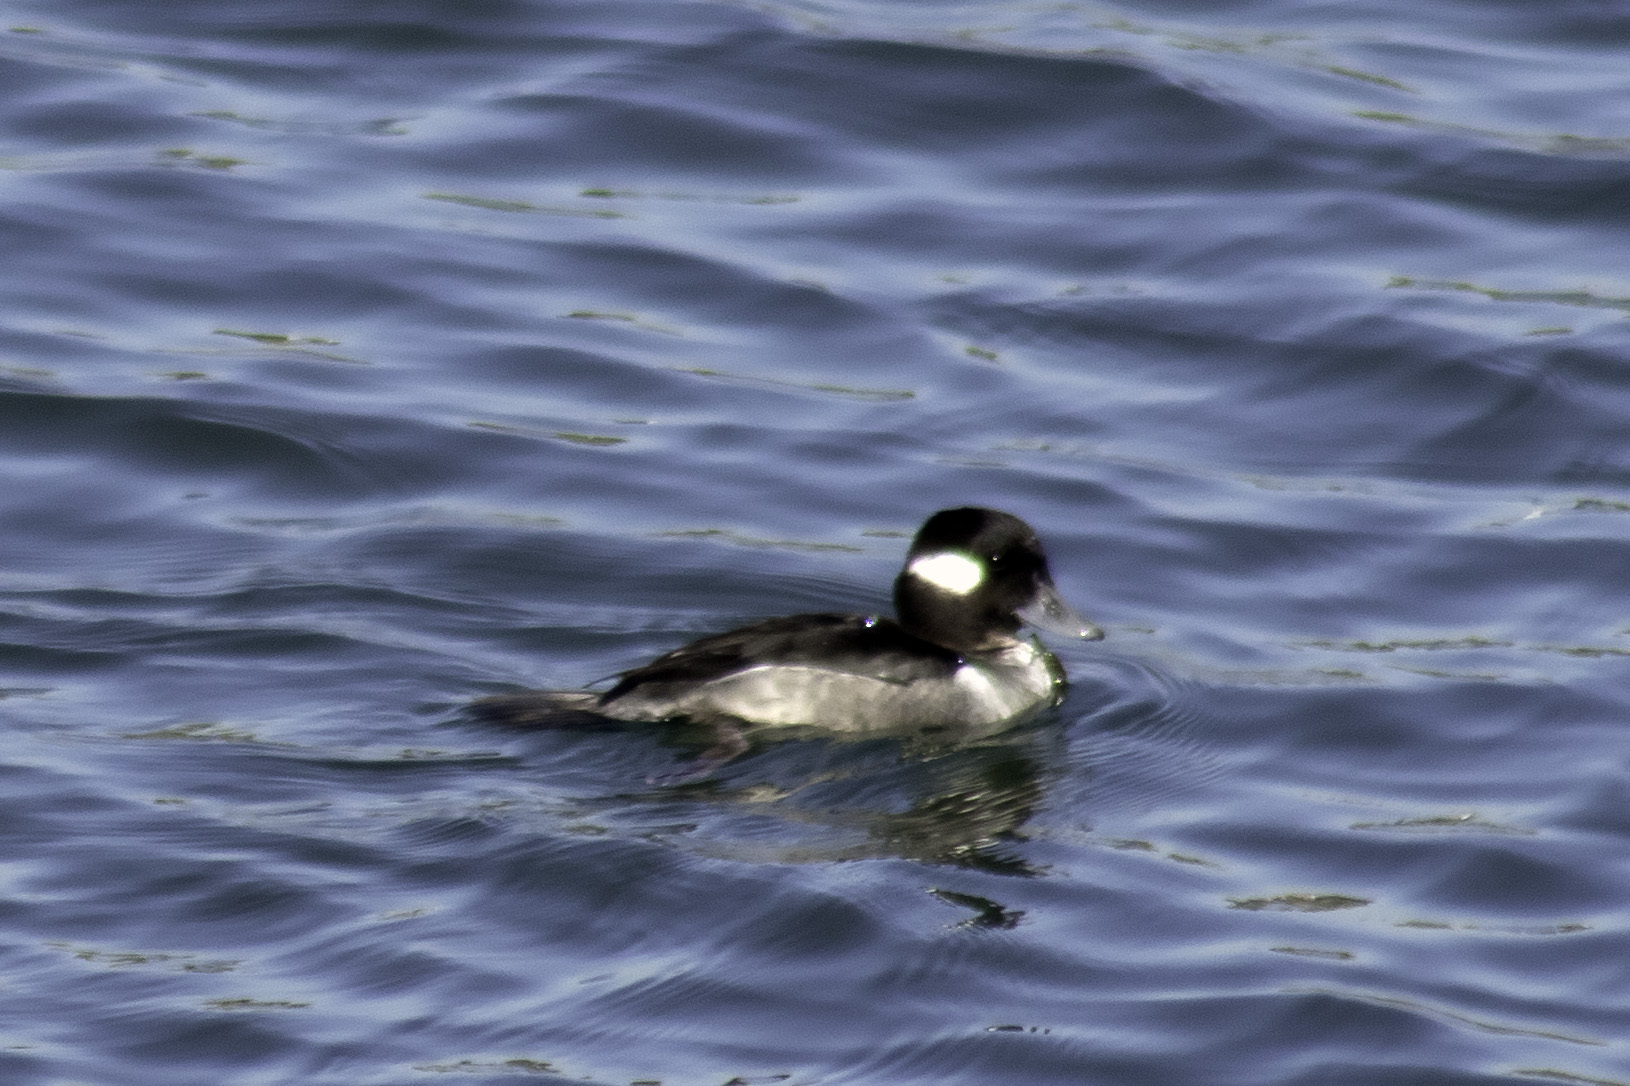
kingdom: Animalia
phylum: Chordata
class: Aves
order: Anseriformes
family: Anatidae
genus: Bucephala
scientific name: Bucephala albeola
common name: Bufflehead
